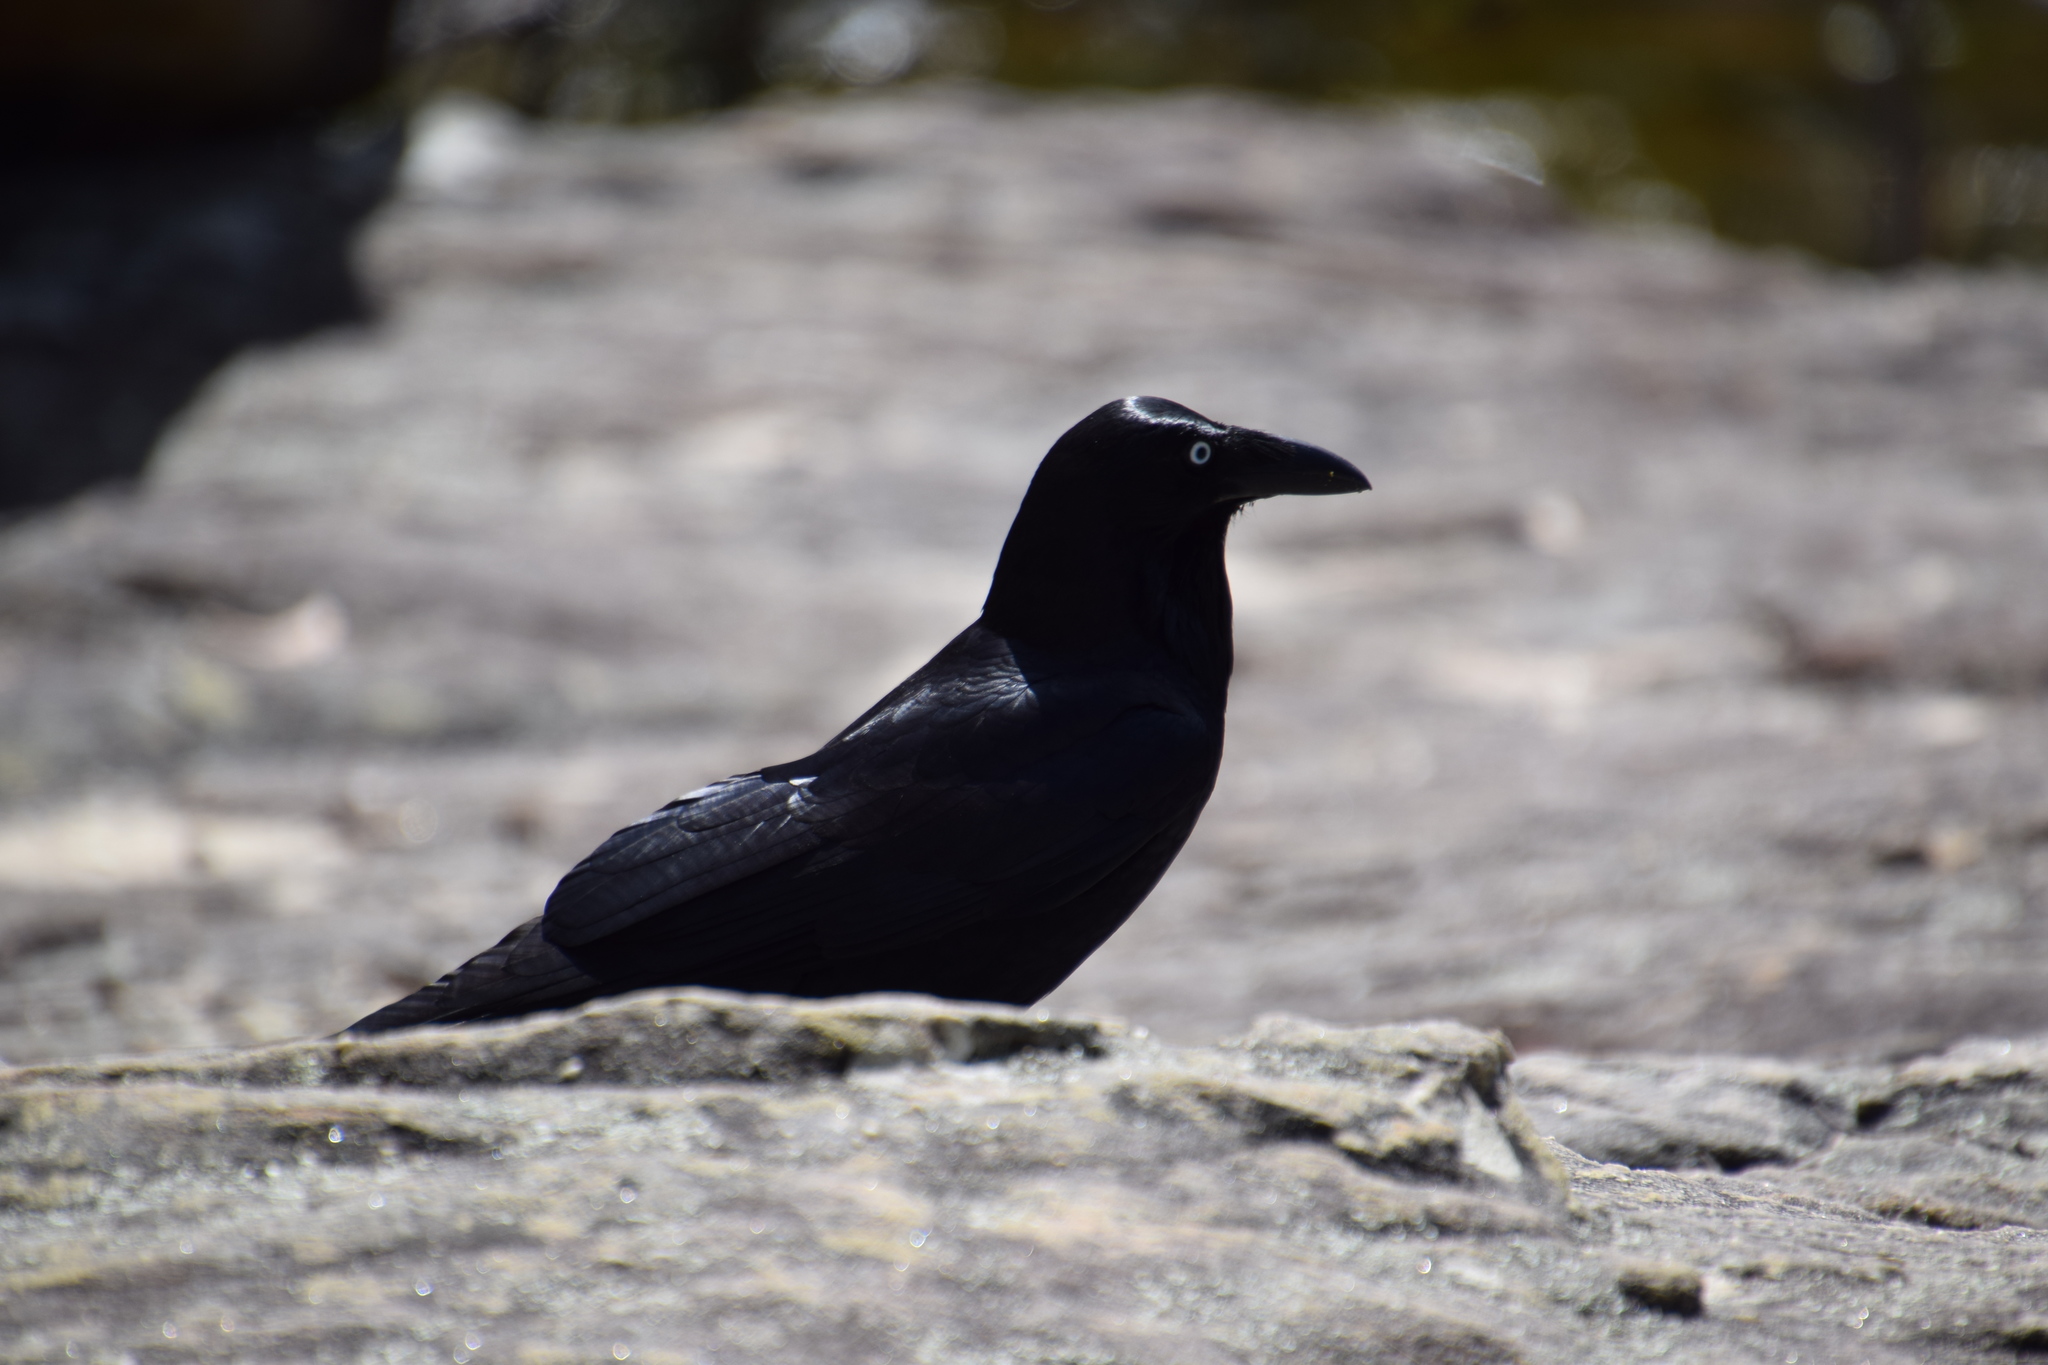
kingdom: Animalia
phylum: Chordata
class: Aves
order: Passeriformes
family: Corvidae
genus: Corvus
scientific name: Corvus coronoides
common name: Australian raven
